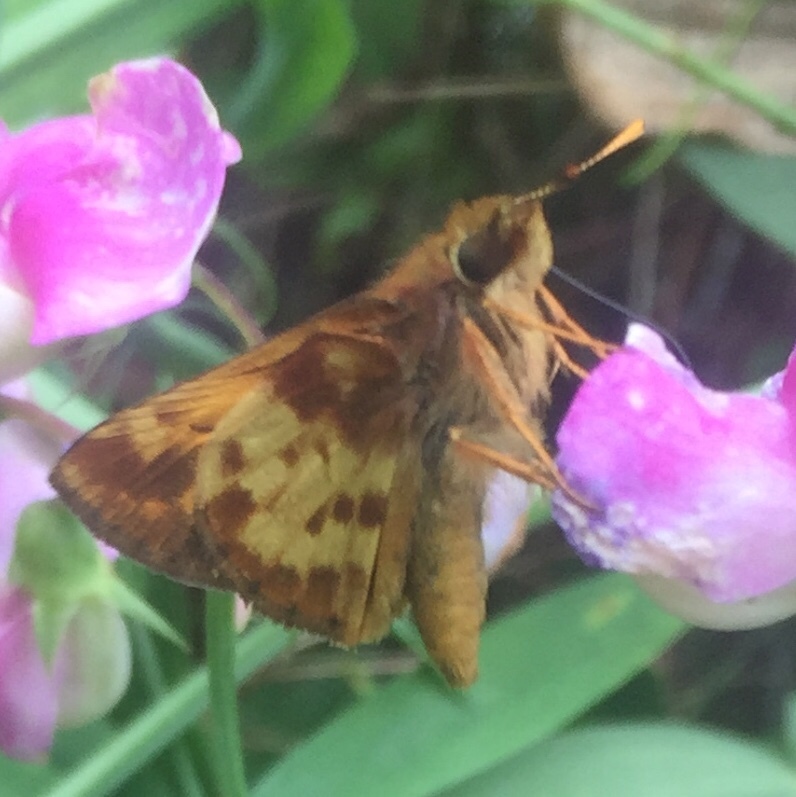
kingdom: Animalia
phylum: Arthropoda
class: Insecta
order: Lepidoptera
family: Hesperiidae
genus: Lon
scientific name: Lon zabulon
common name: Zabulon skipper
